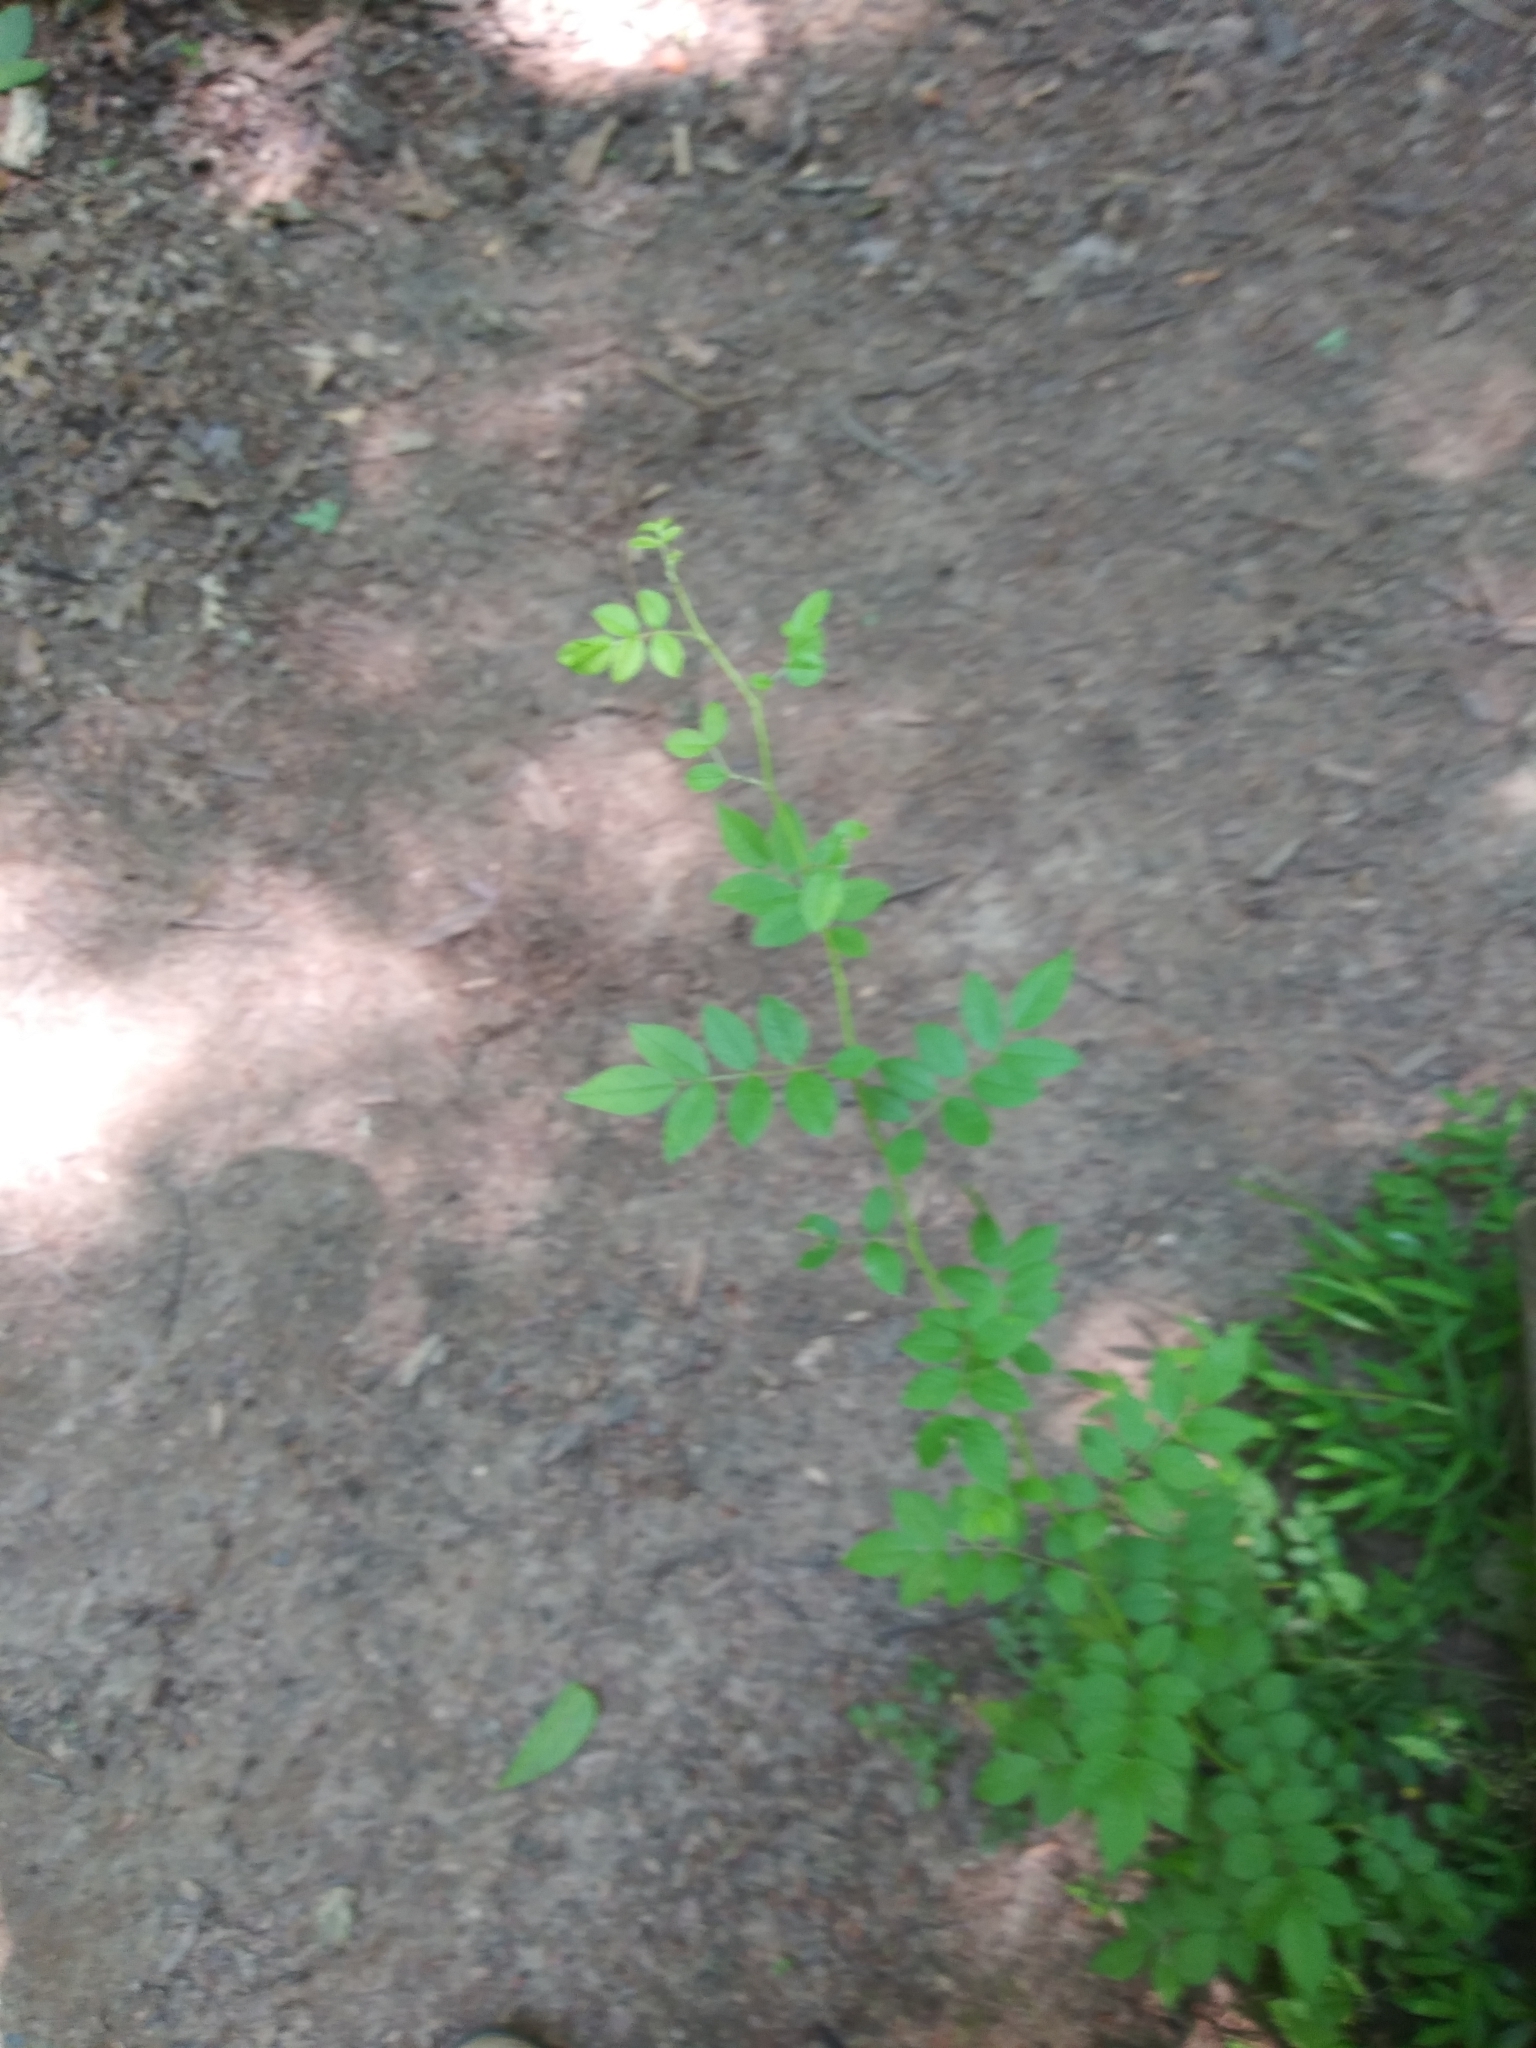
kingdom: Plantae
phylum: Tracheophyta
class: Magnoliopsida
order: Rosales
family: Rosaceae
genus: Rosa
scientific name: Rosa
